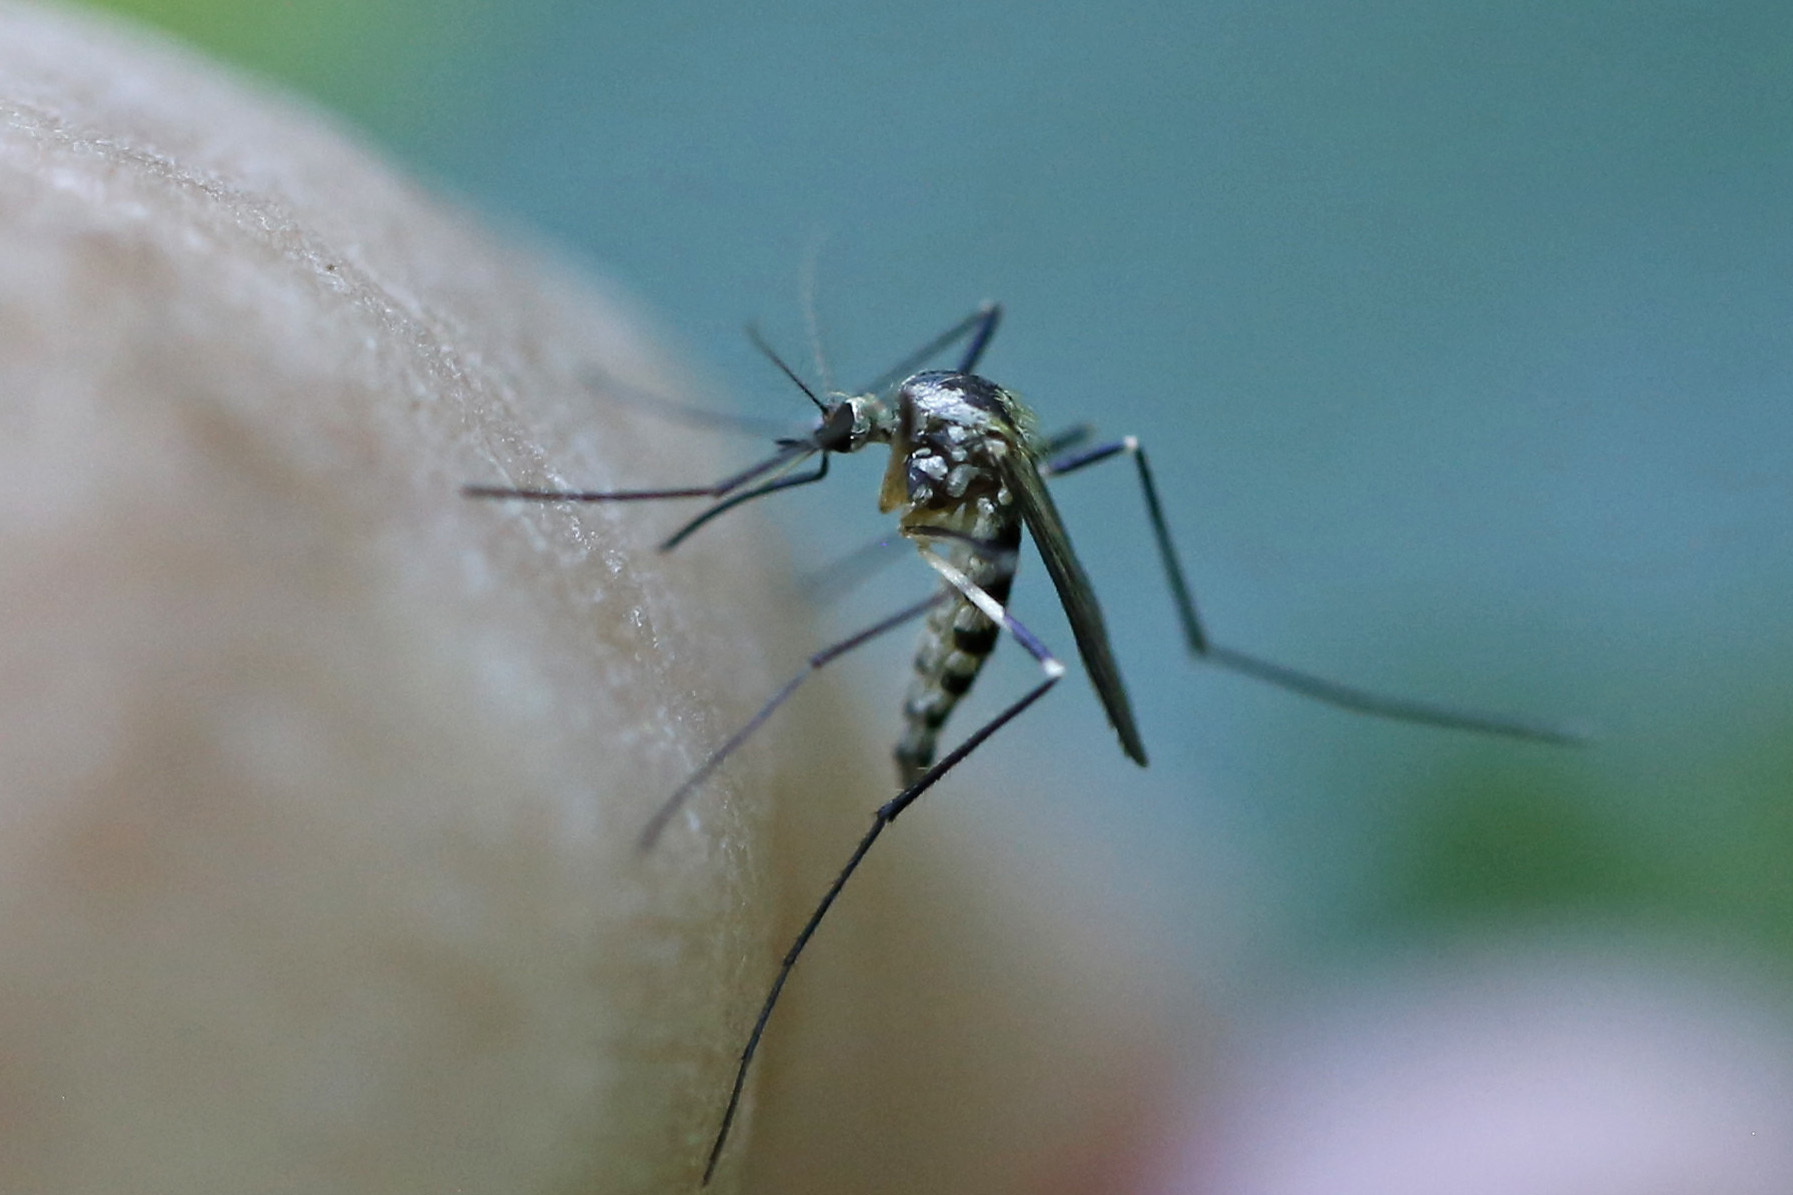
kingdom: Animalia
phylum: Arthropoda
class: Insecta
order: Diptera
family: Culicidae
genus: Aedes
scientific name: Aedes triseriatus
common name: Eastern treehole mosquito
